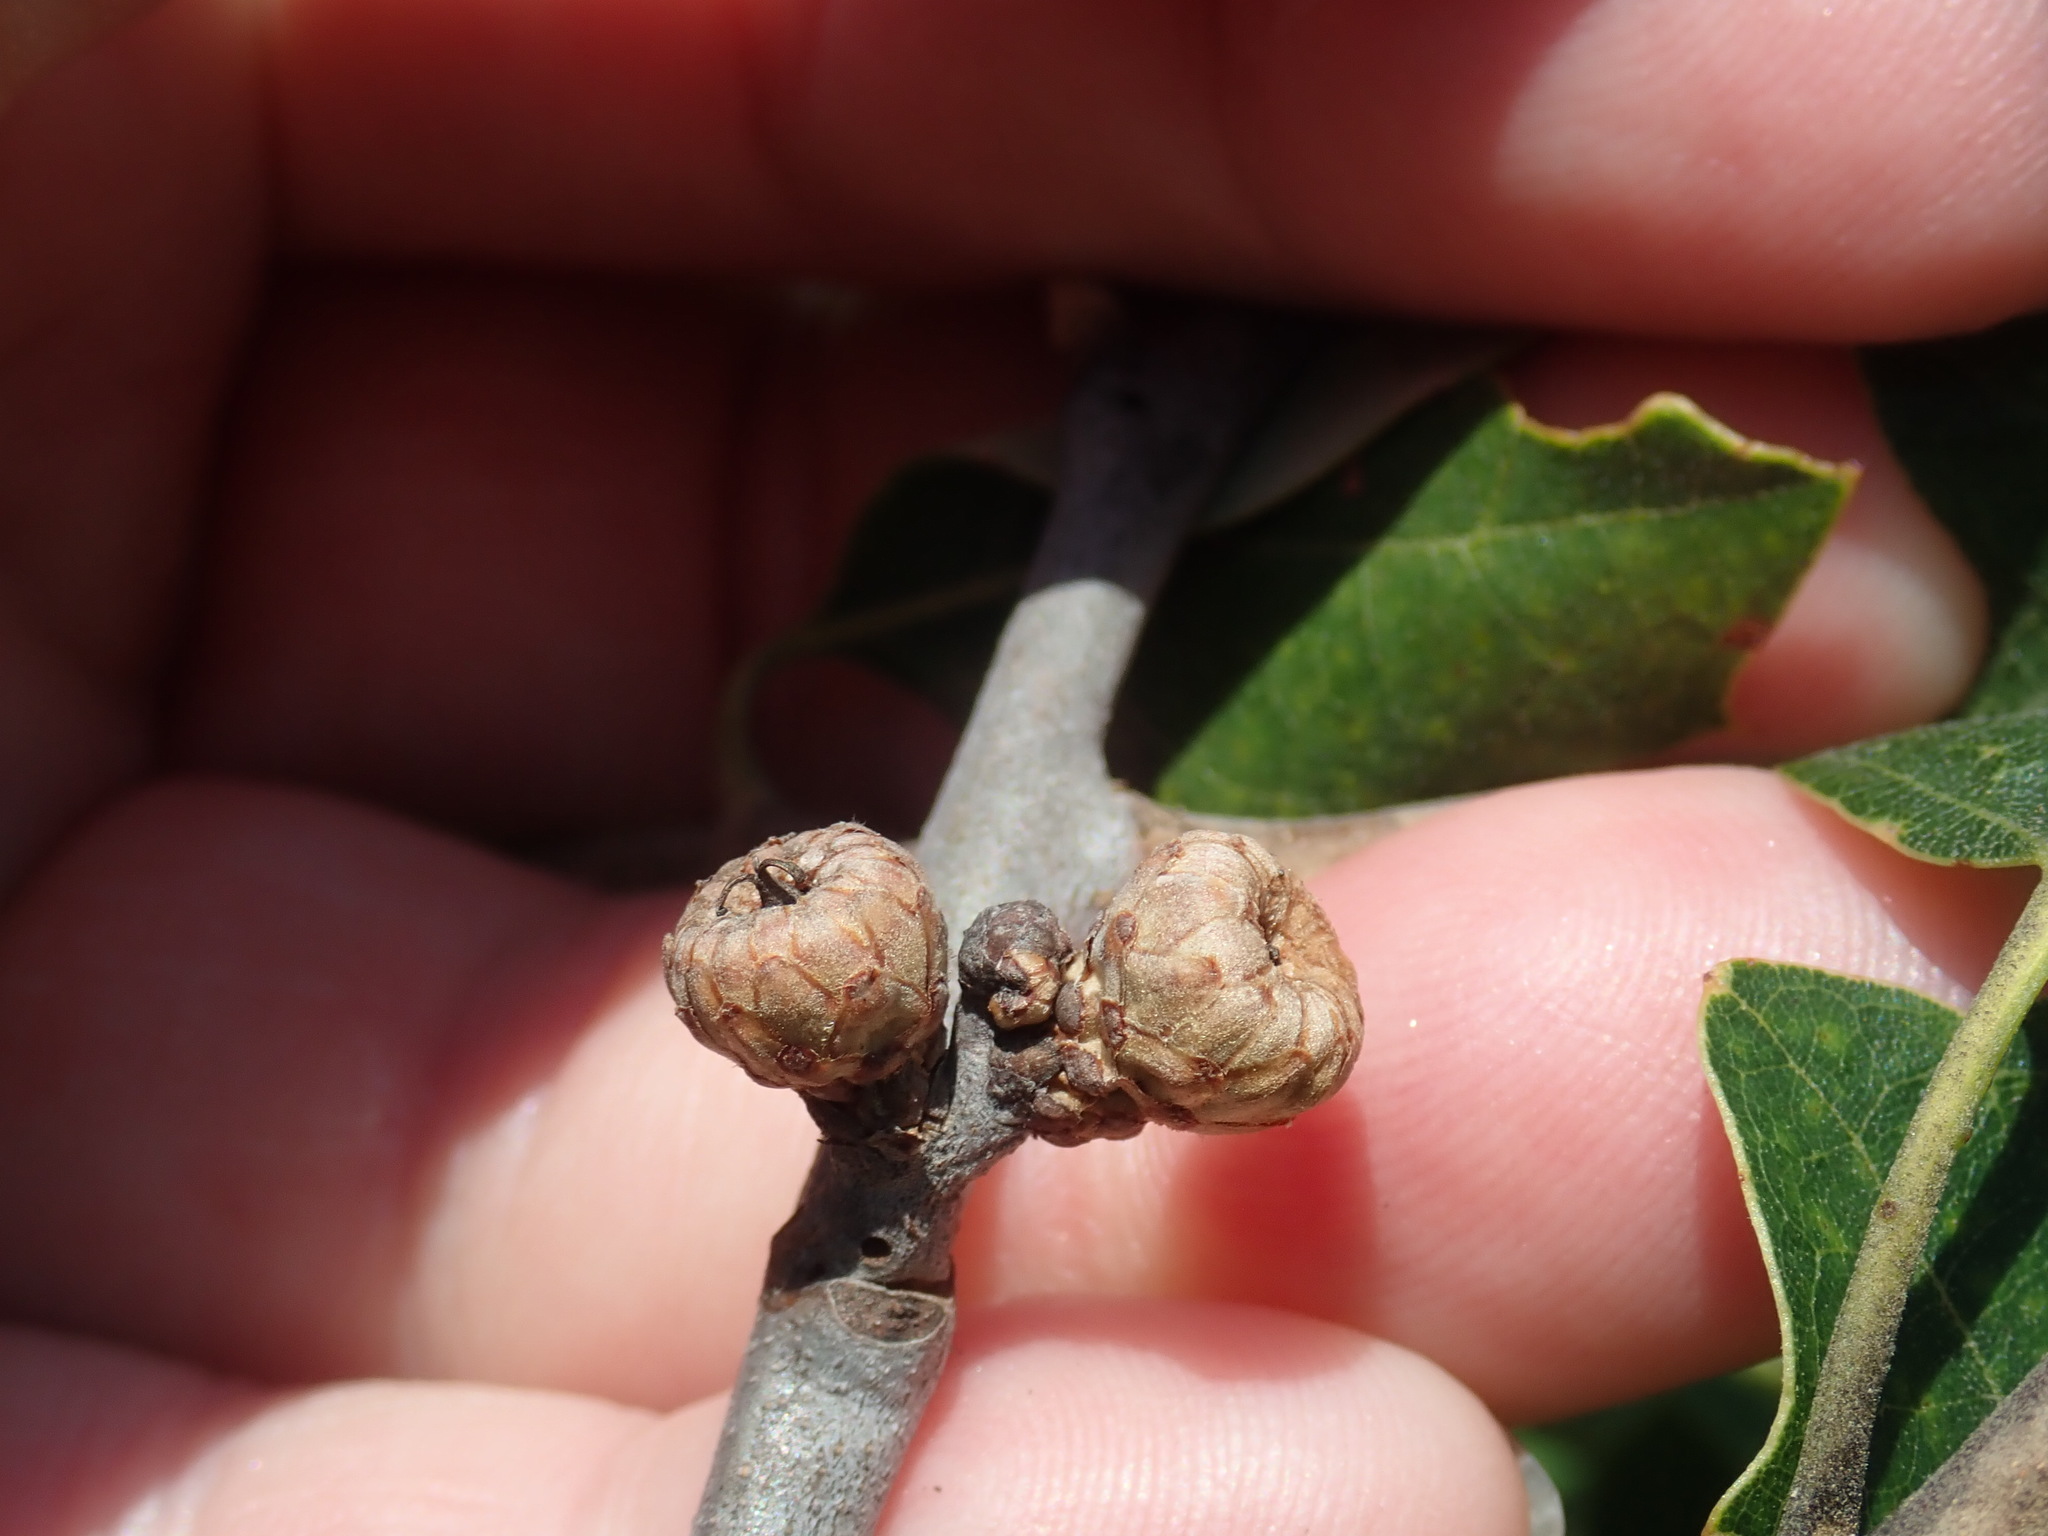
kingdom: Plantae
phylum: Tracheophyta
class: Magnoliopsida
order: Fagales
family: Fagaceae
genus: Quercus
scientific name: Quercus ilicifolia
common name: Bear oak
